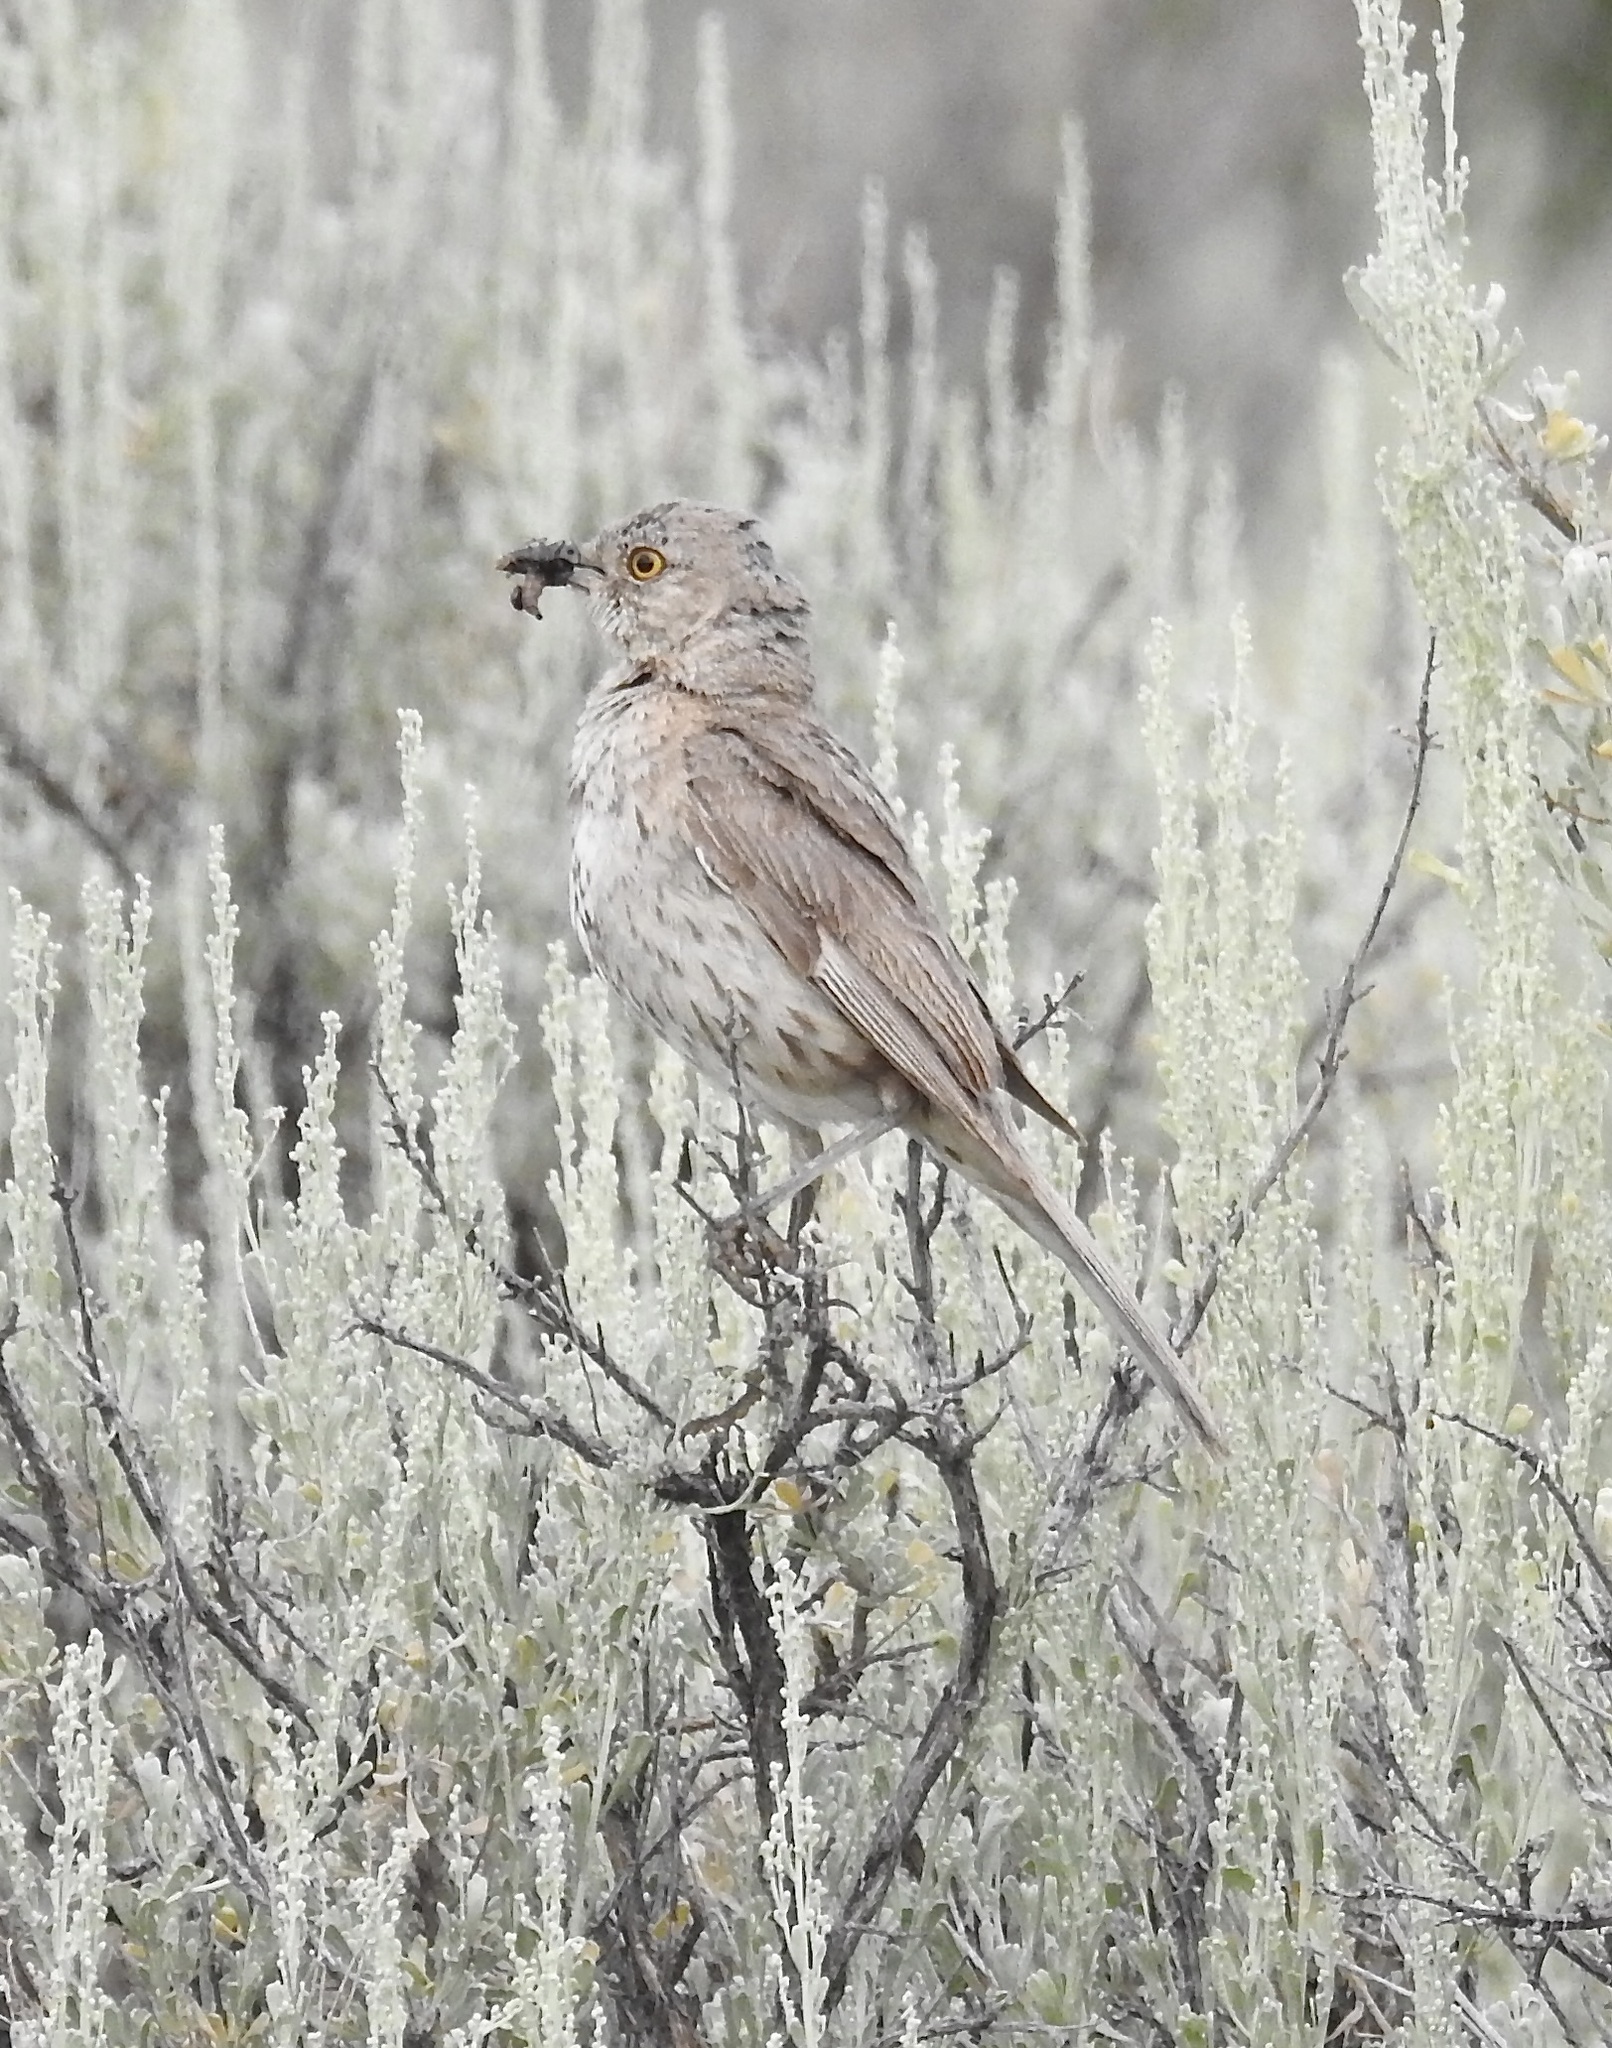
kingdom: Animalia
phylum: Chordata
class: Aves
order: Passeriformes
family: Mimidae
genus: Oreoscoptes
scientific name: Oreoscoptes montanus
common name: Sage thrasher
